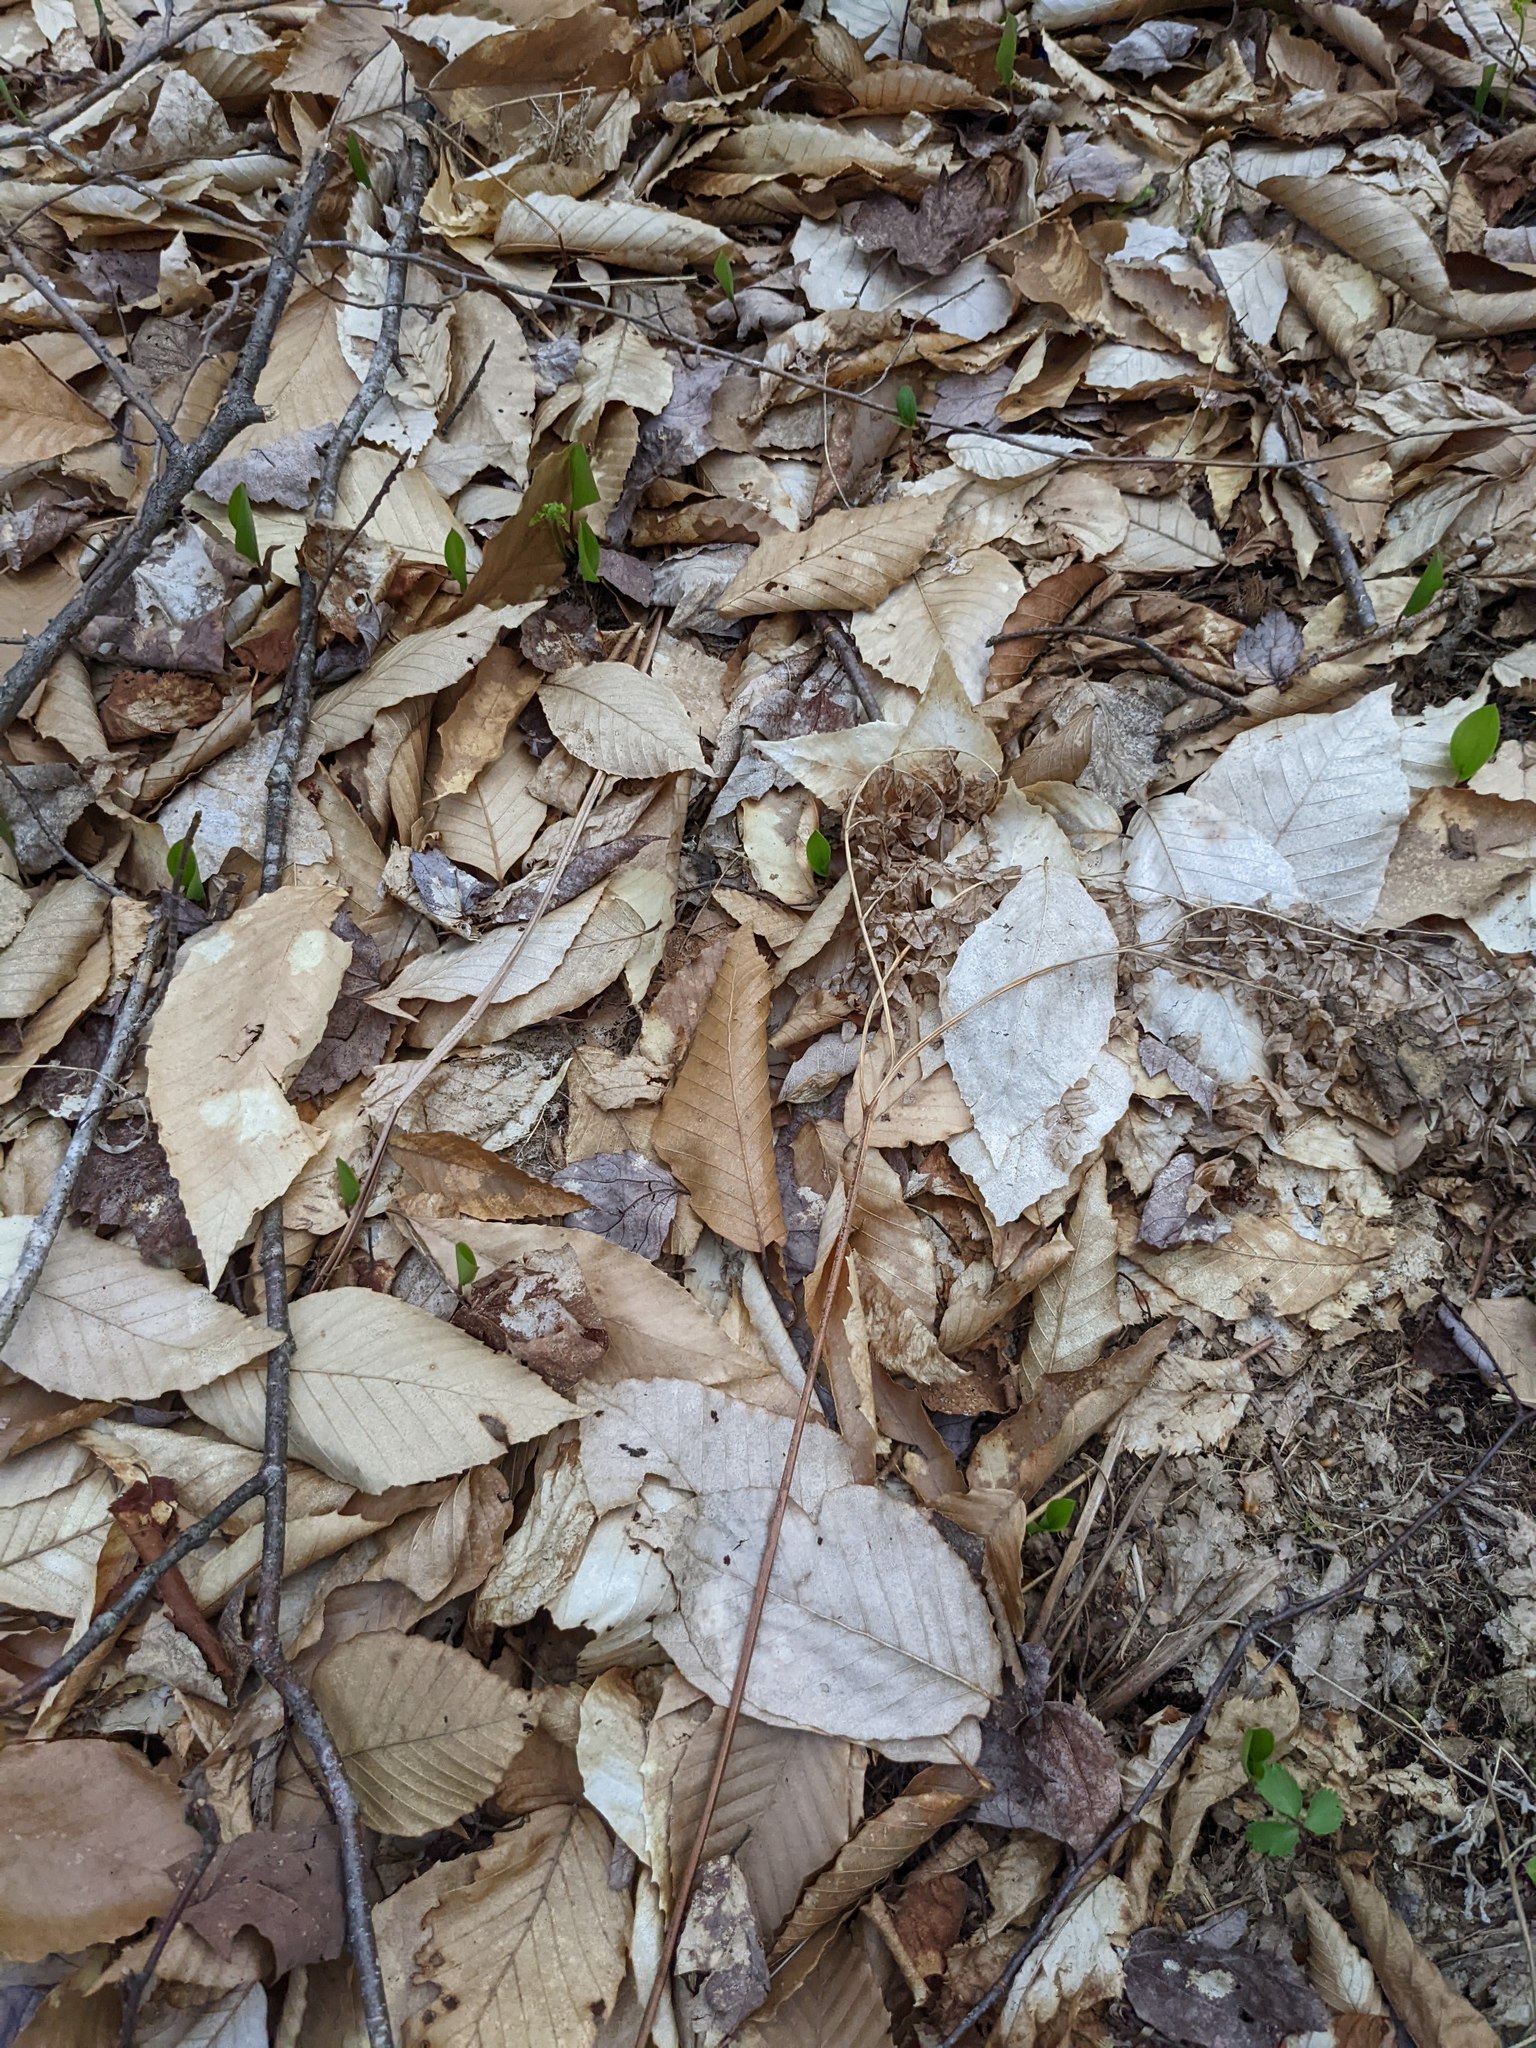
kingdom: Plantae
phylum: Tracheophyta
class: Magnoliopsida
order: Fagales
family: Fagaceae
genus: Fagus
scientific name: Fagus grandifolia
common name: American beech
